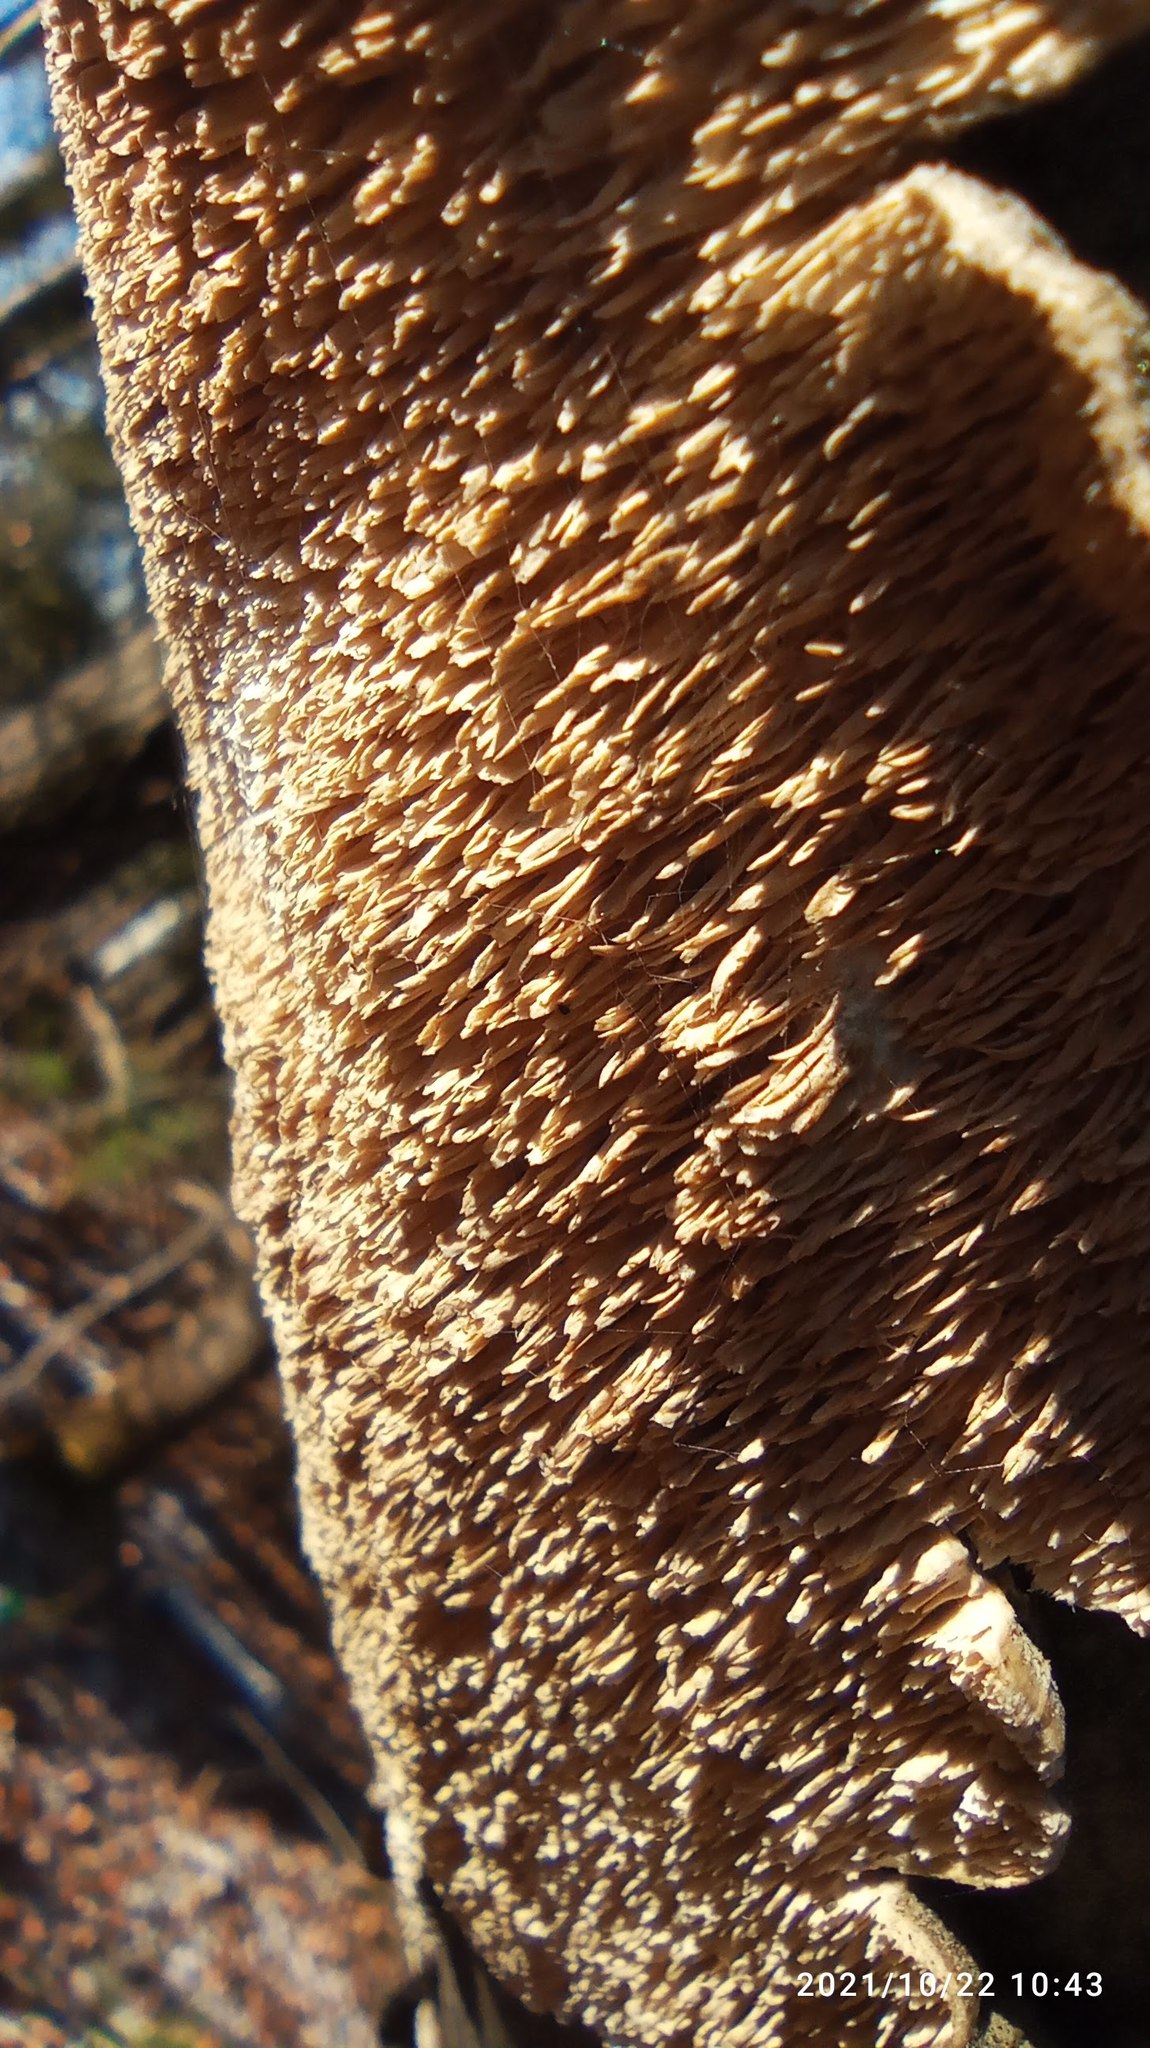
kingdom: Fungi
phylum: Basidiomycota
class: Agaricomycetes
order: Polyporales
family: Irpicaceae
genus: Irpex
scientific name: Irpex lacteus
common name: Milk-white toothed polypore
